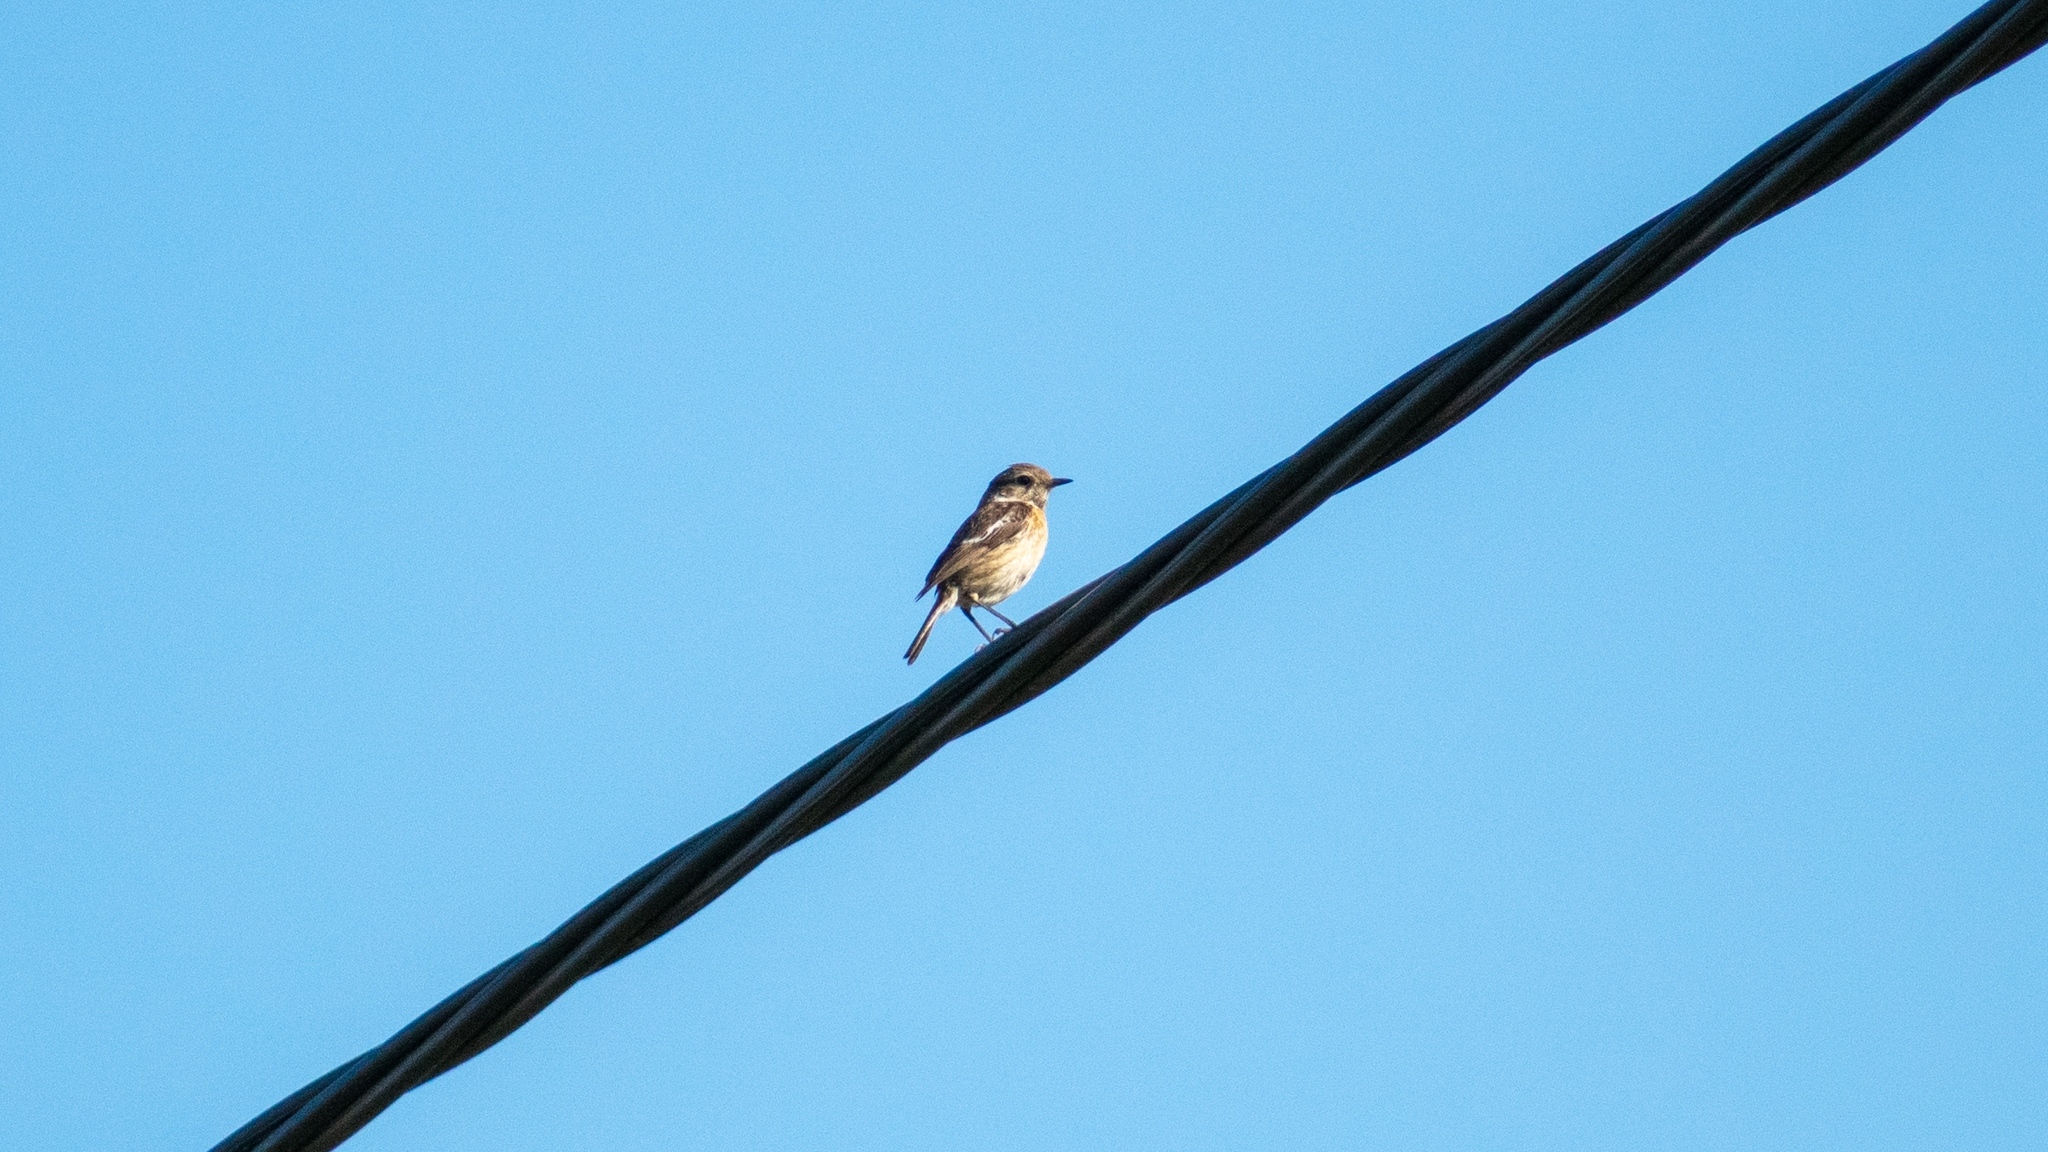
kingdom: Animalia
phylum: Chordata
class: Aves
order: Passeriformes
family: Muscicapidae
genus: Saxicola
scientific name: Saxicola rubicola
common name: European stonechat
